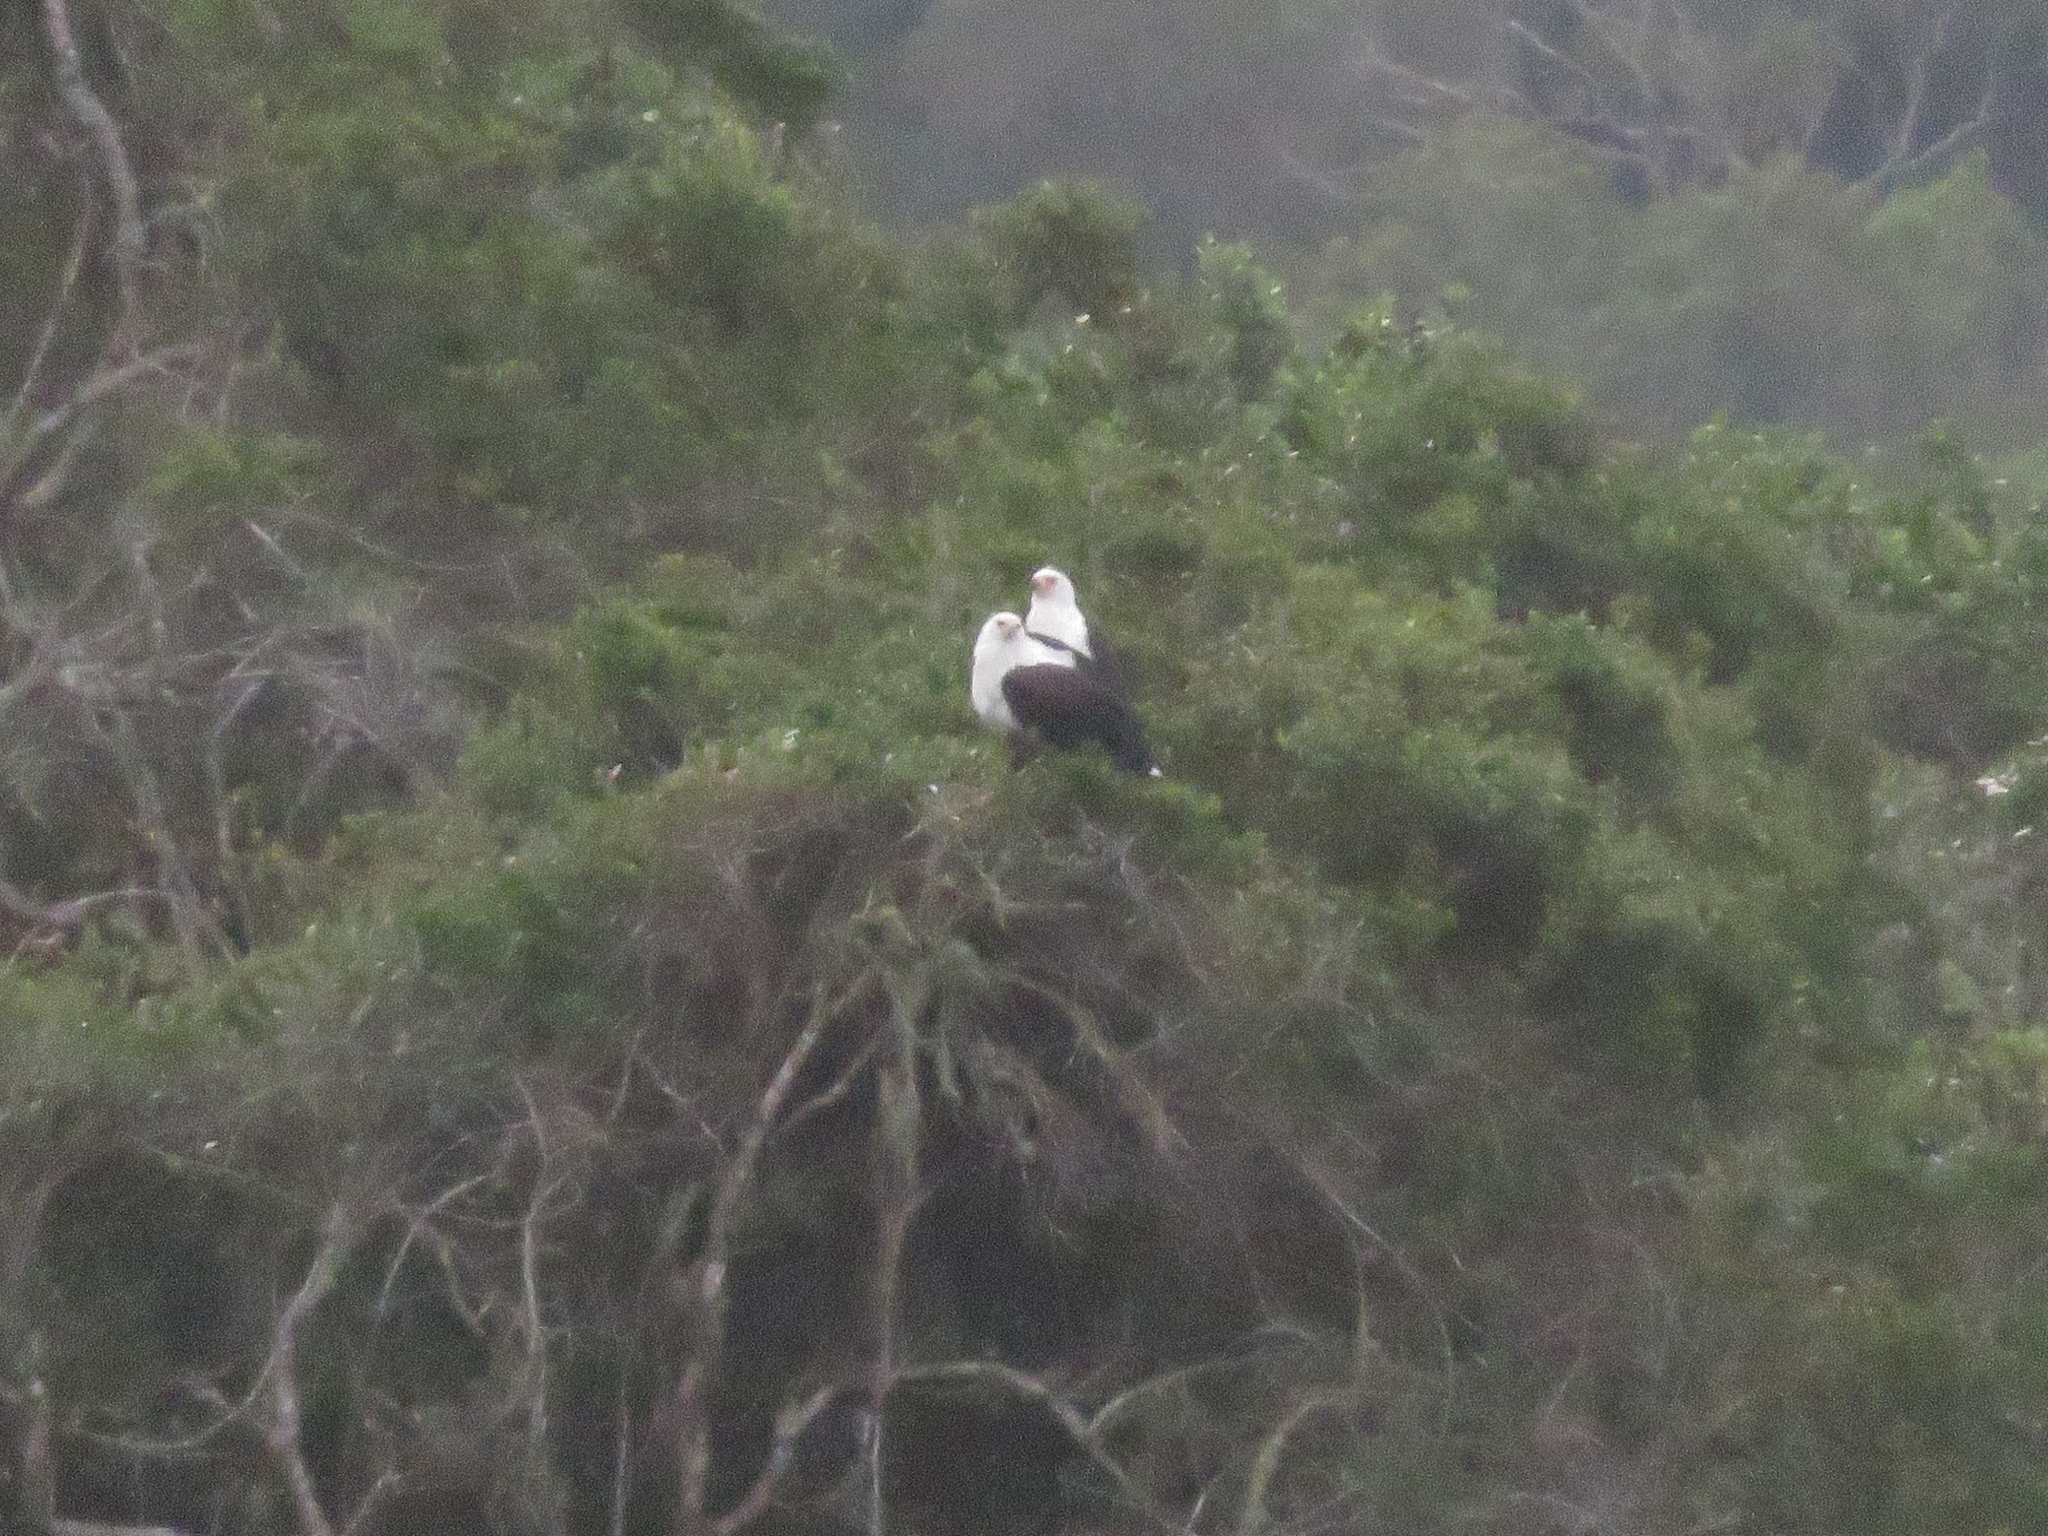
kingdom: Animalia
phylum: Chordata
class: Aves
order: Accipitriformes
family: Accipitridae
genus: Haliaeetus
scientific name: Haliaeetus vocifer
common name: African fish eagle
